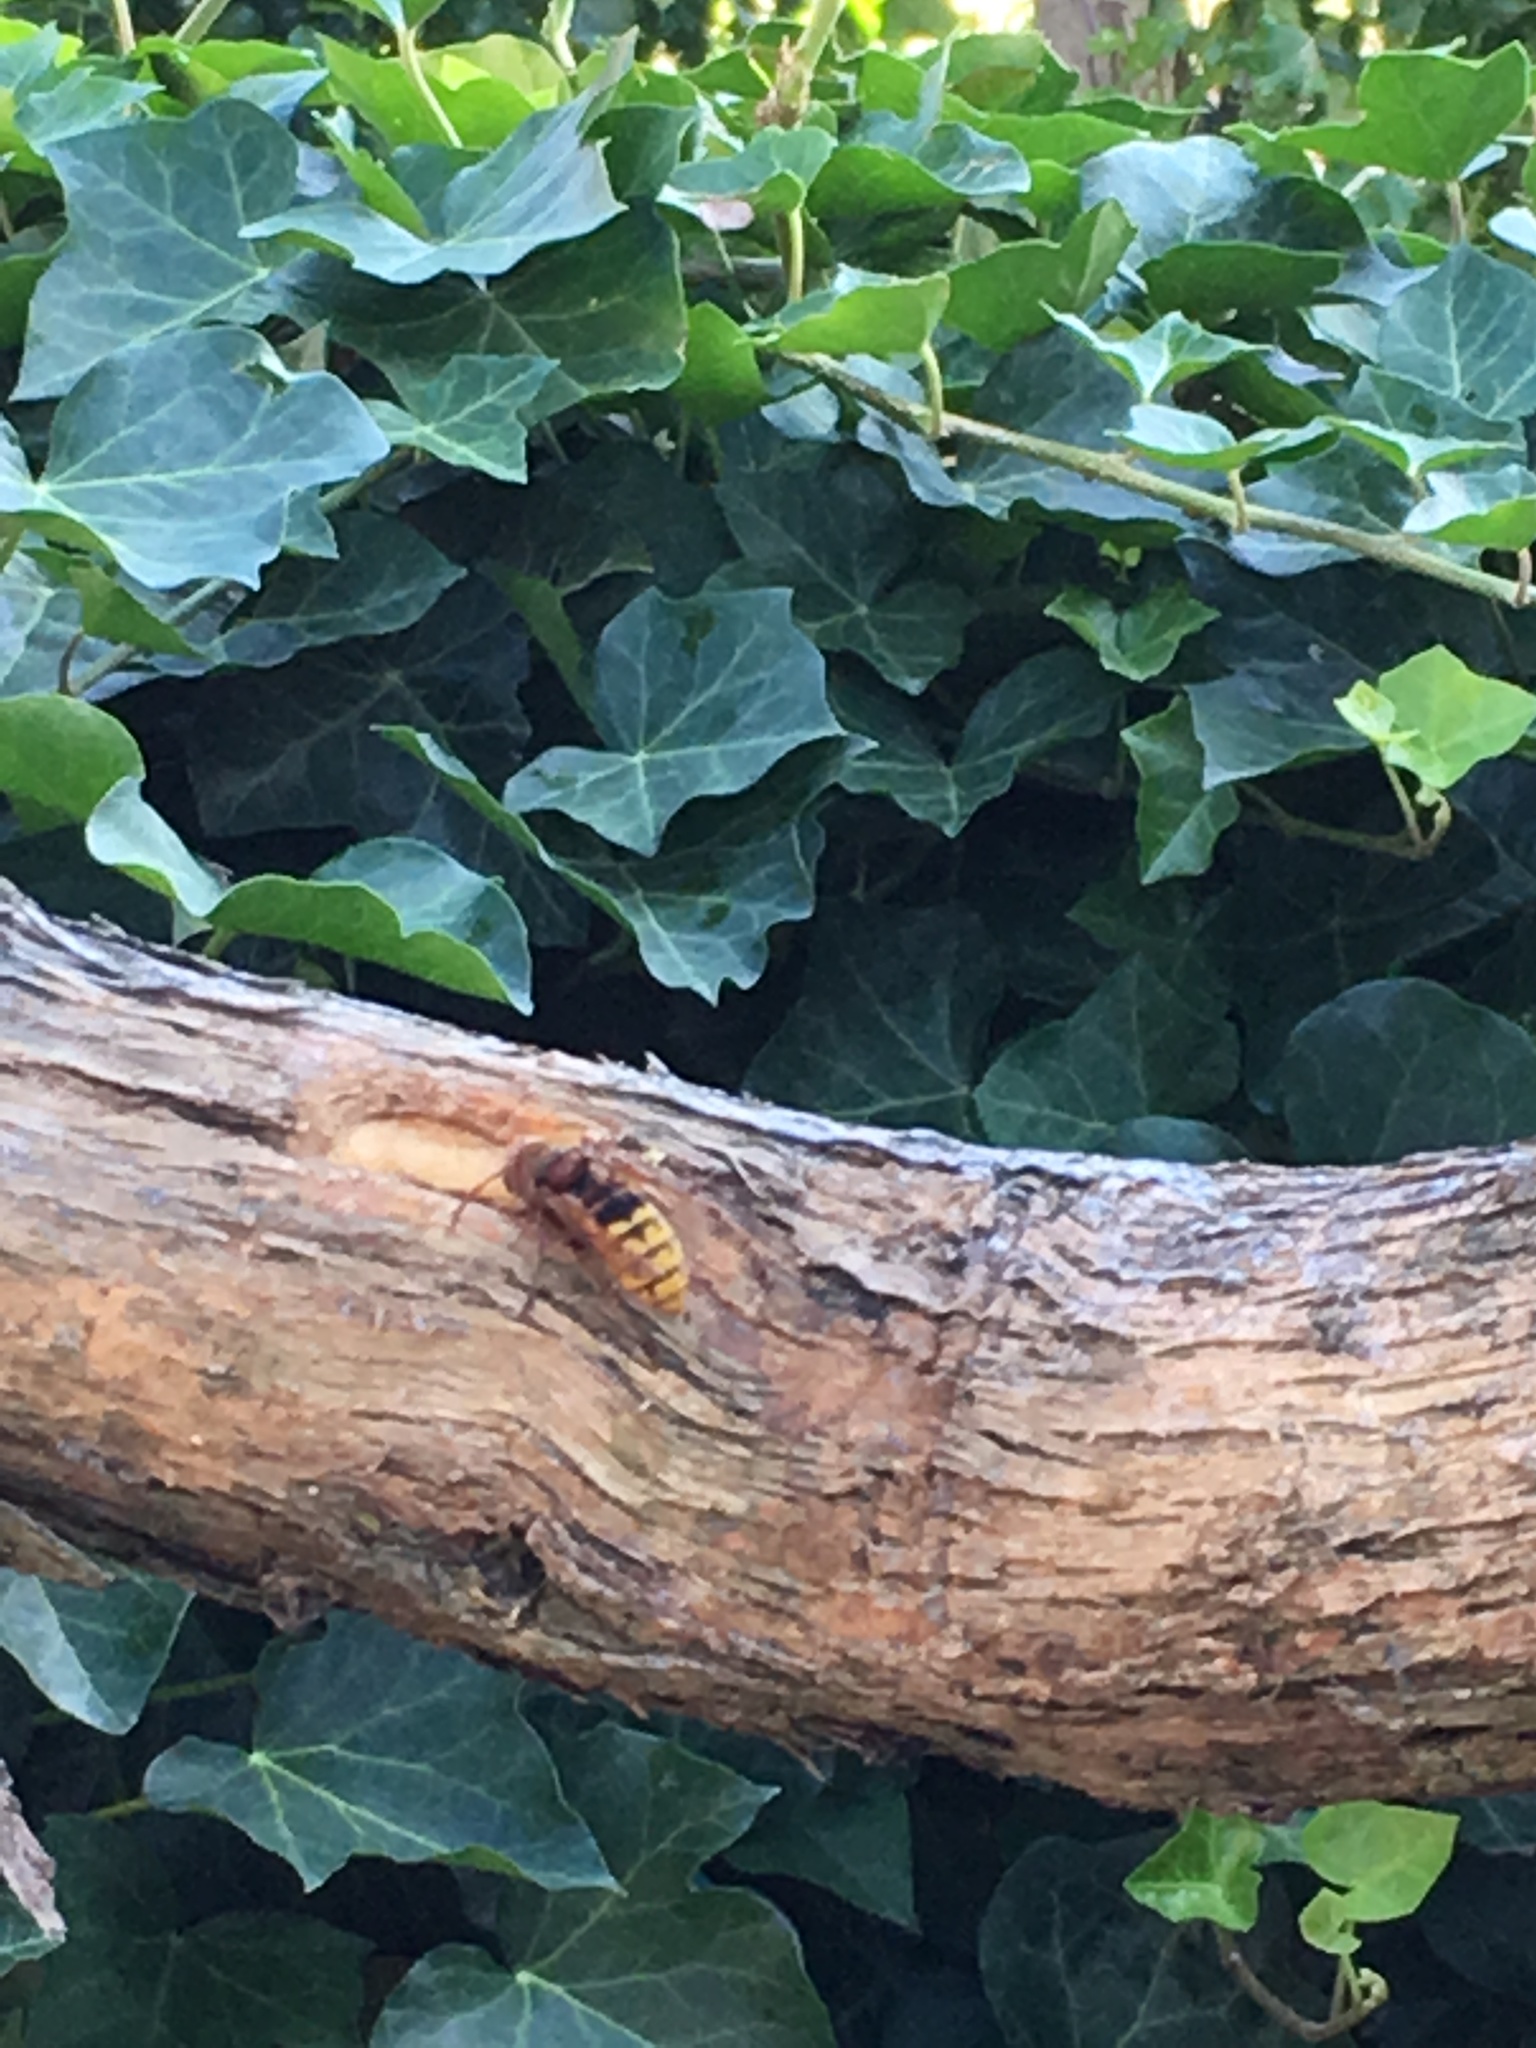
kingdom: Animalia
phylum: Arthropoda
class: Insecta
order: Hymenoptera
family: Vespidae
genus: Vespa
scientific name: Vespa crabro
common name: Hornet
